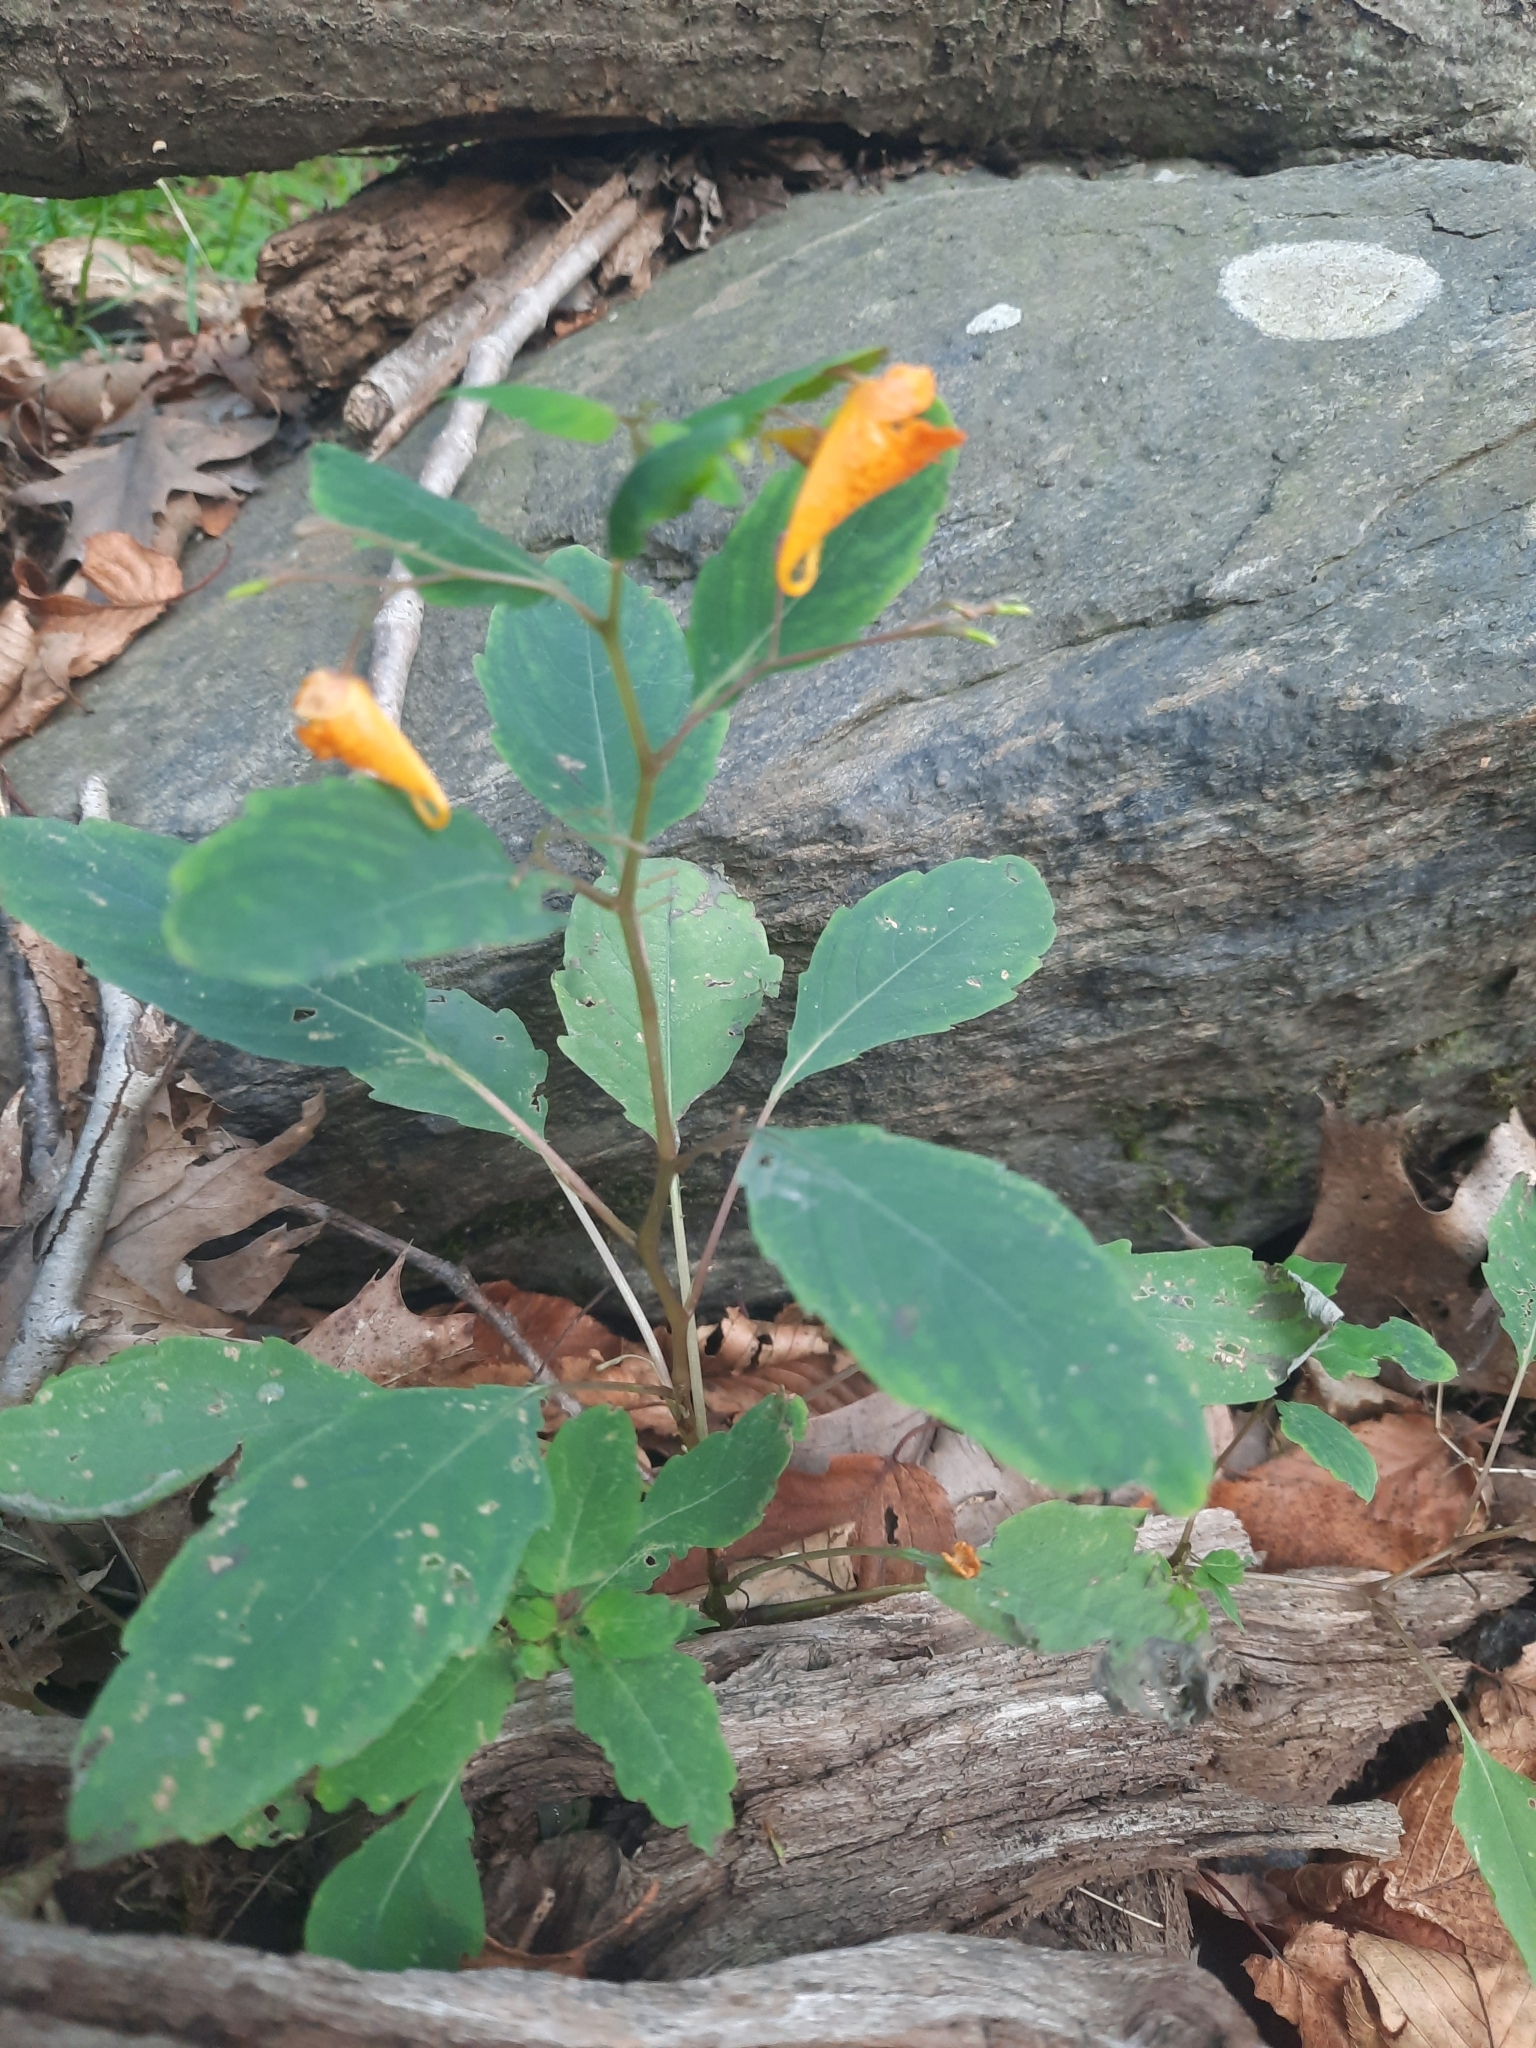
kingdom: Plantae
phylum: Tracheophyta
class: Magnoliopsida
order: Ericales
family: Balsaminaceae
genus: Impatiens
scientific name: Impatiens capensis
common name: Orange balsam
